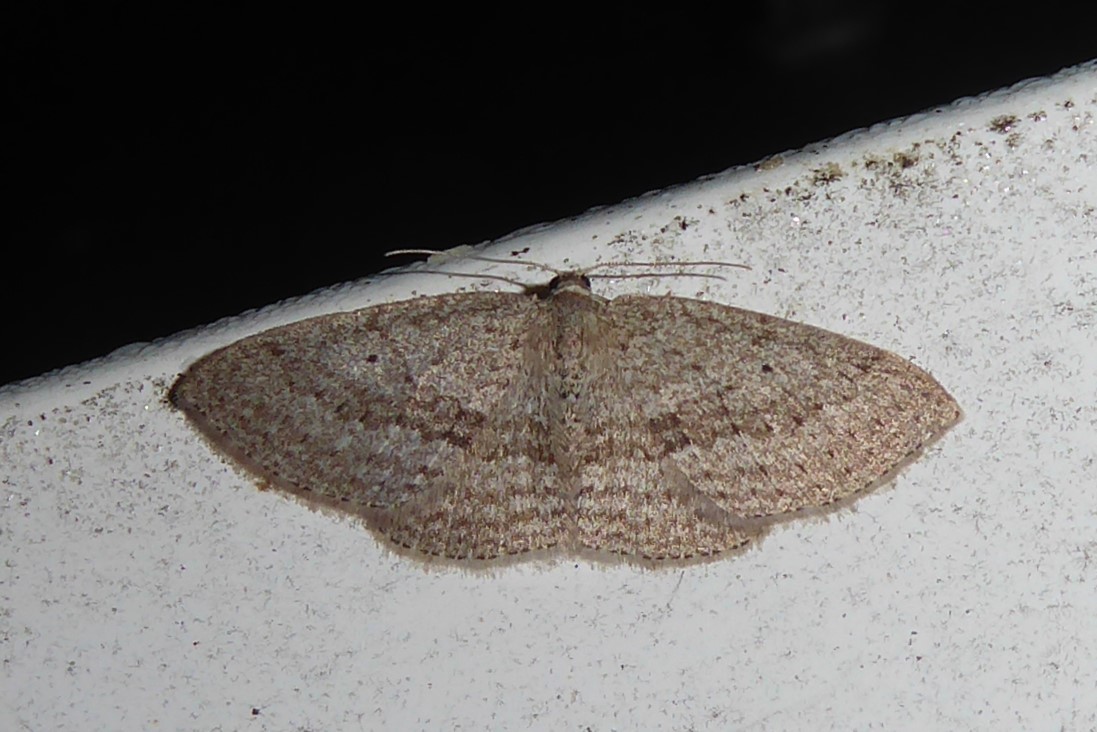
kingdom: Animalia
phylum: Arthropoda
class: Insecta
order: Lepidoptera
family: Geometridae
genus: Poecilasthena
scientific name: Poecilasthena schistaria
